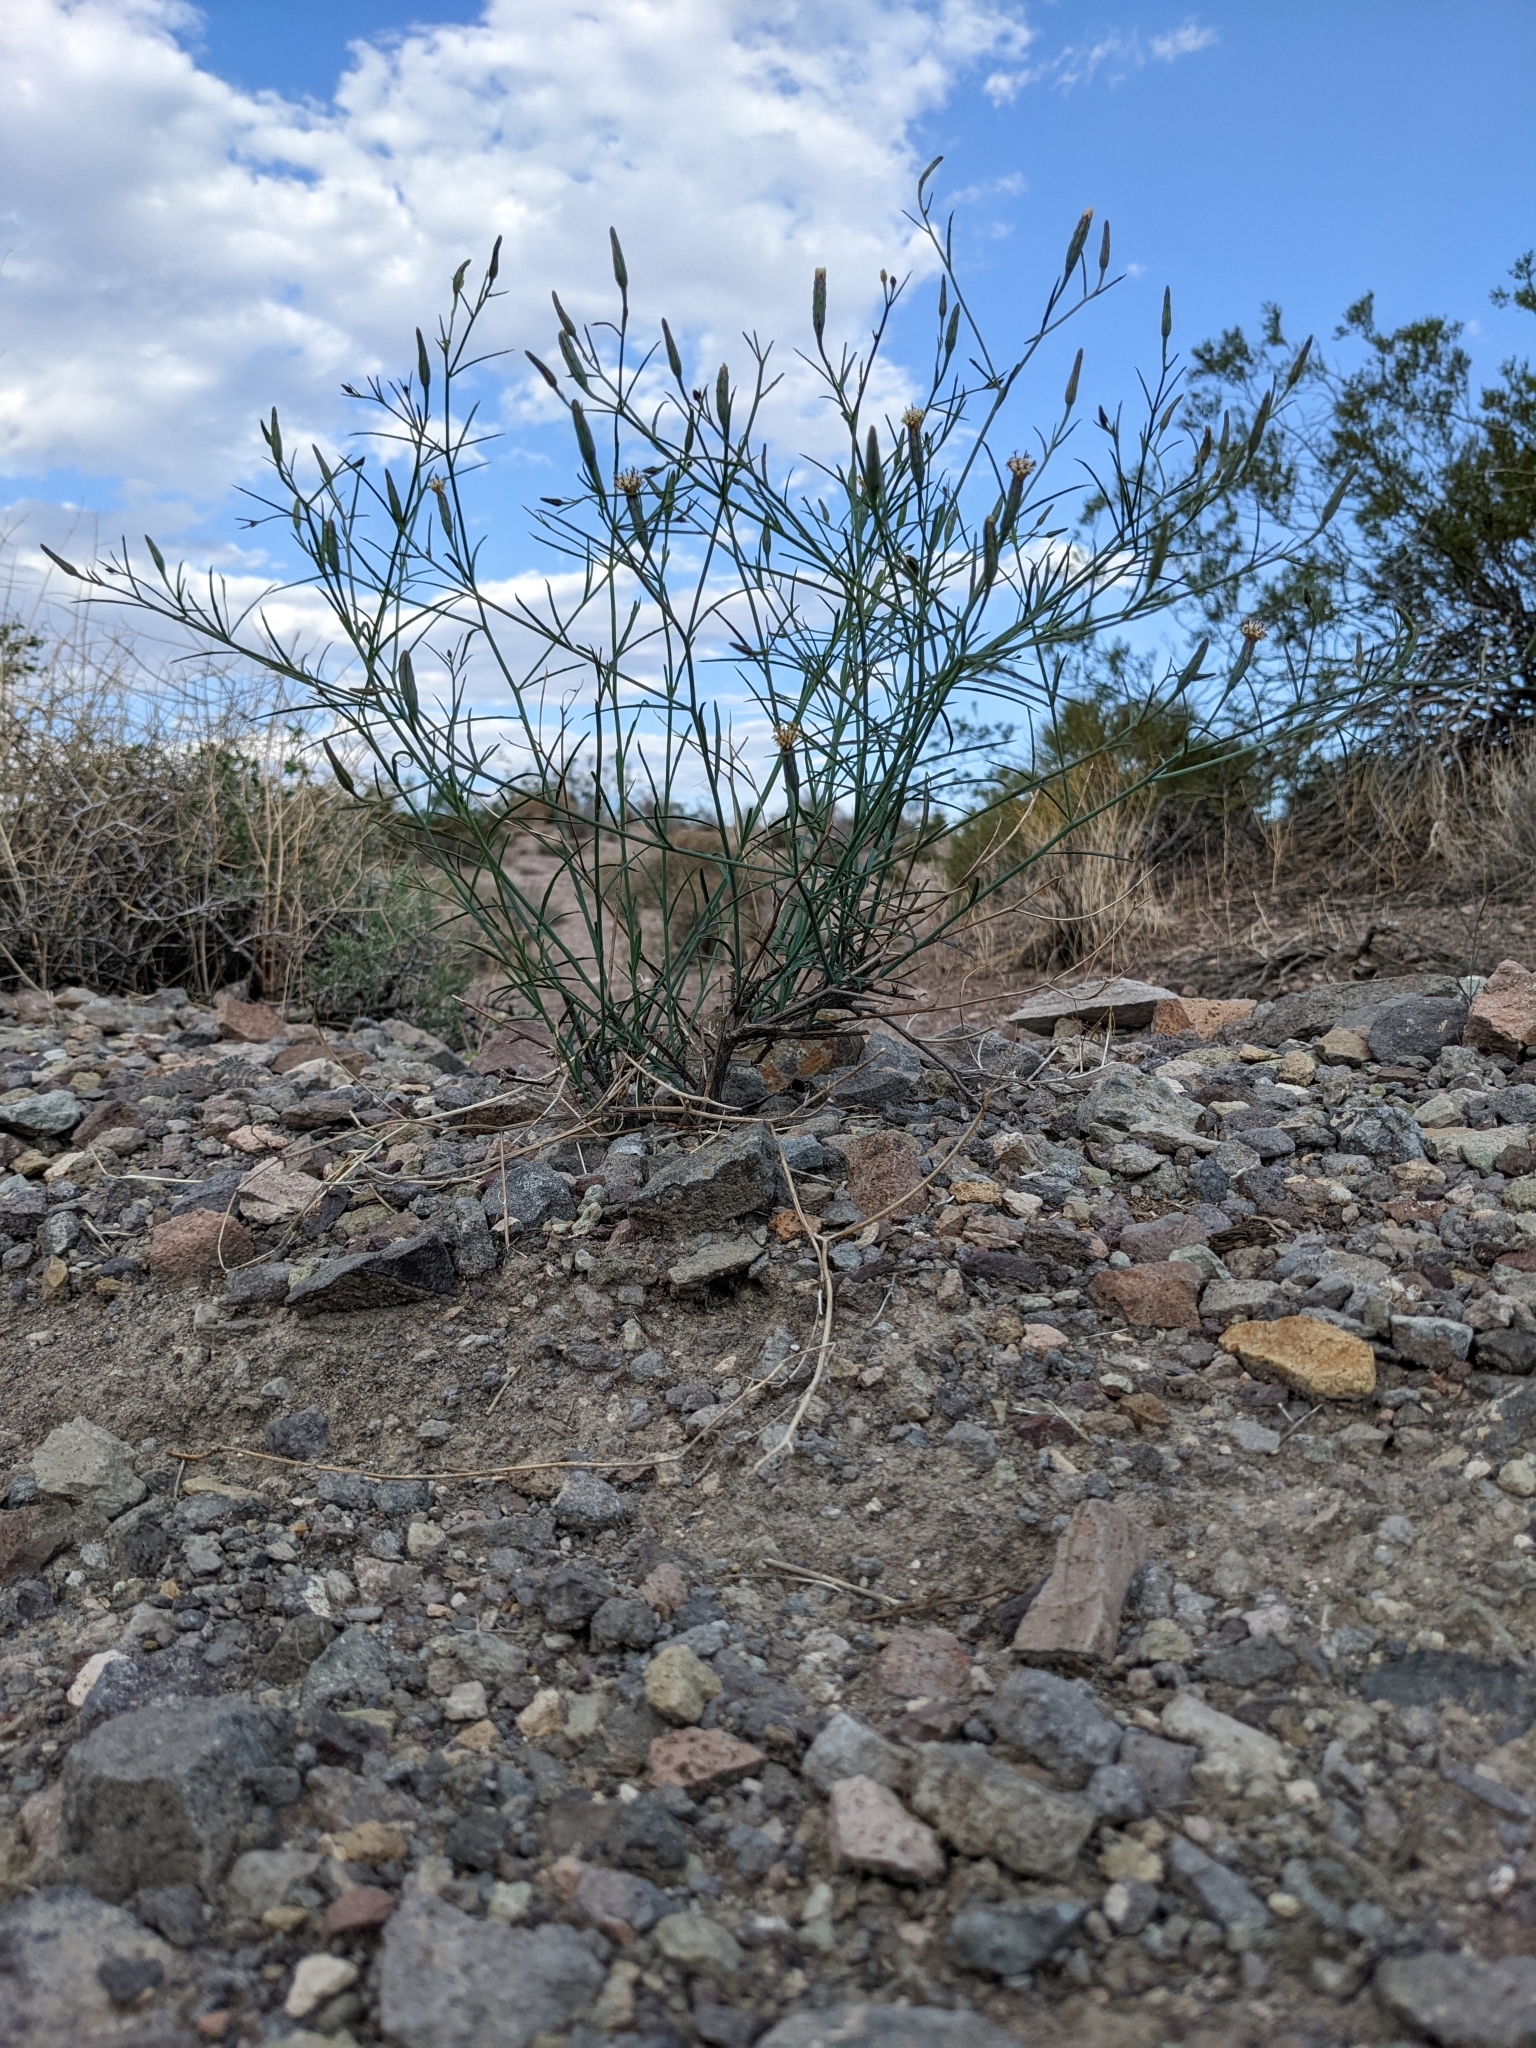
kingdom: Plantae
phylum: Tracheophyta
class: Magnoliopsida
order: Asterales
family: Asteraceae
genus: Porophyllum
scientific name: Porophyllum gracile
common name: Odora
